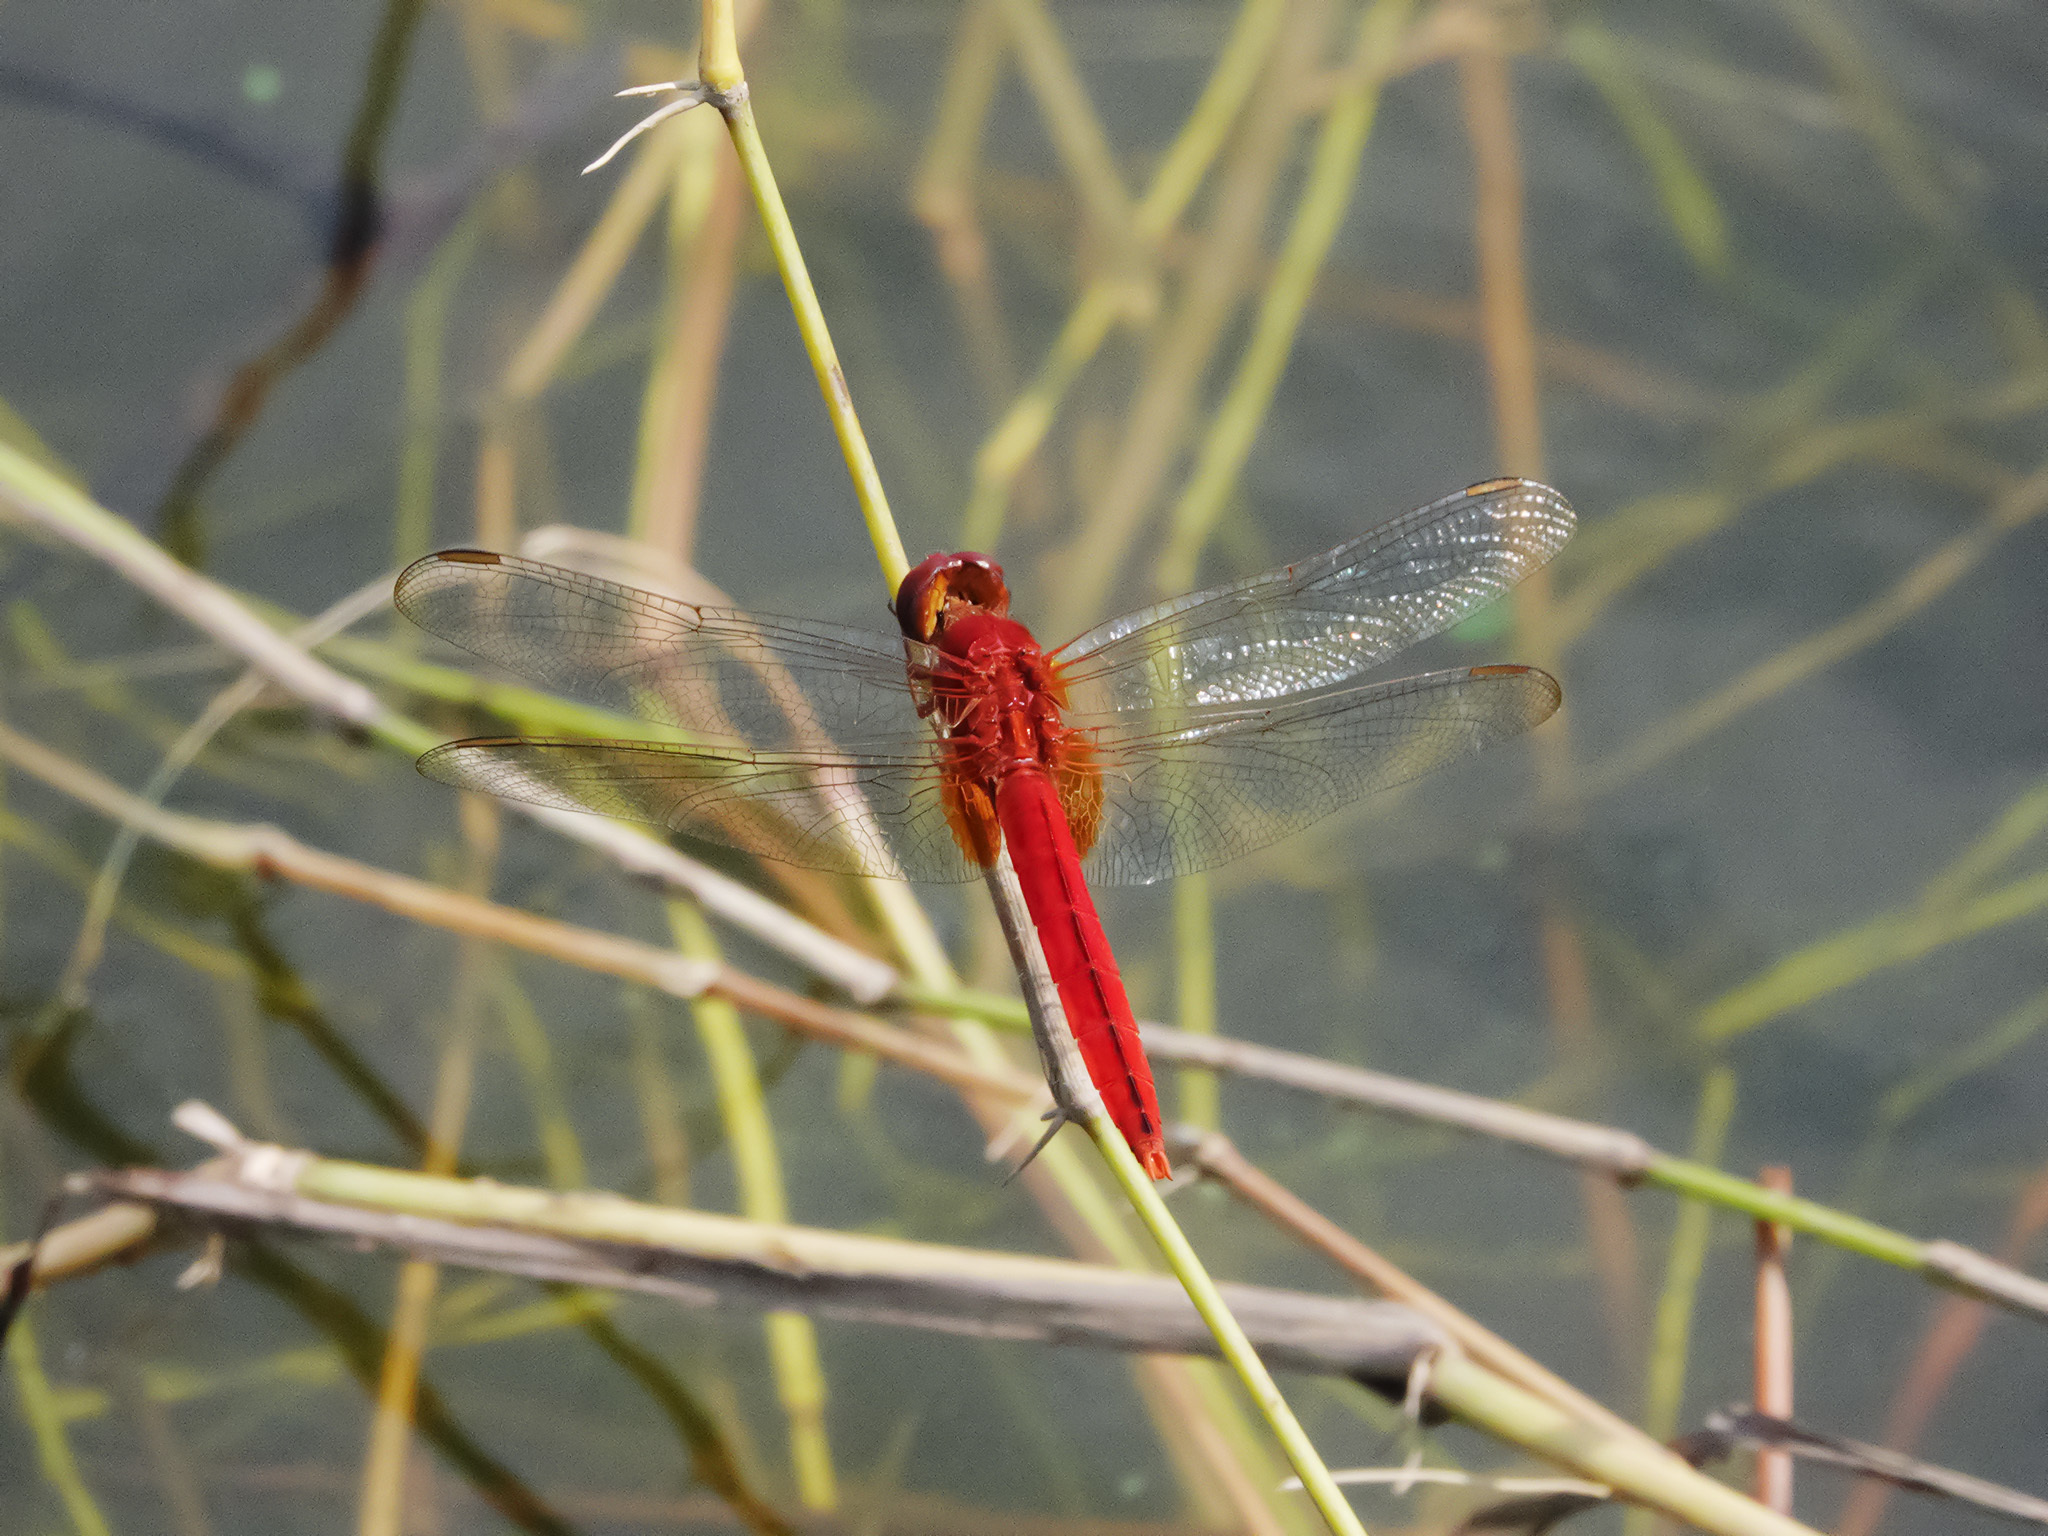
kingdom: Animalia
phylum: Arthropoda
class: Insecta
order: Odonata
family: Libellulidae
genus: Crocothemis
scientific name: Crocothemis servilia
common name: Scarlet skimmer
